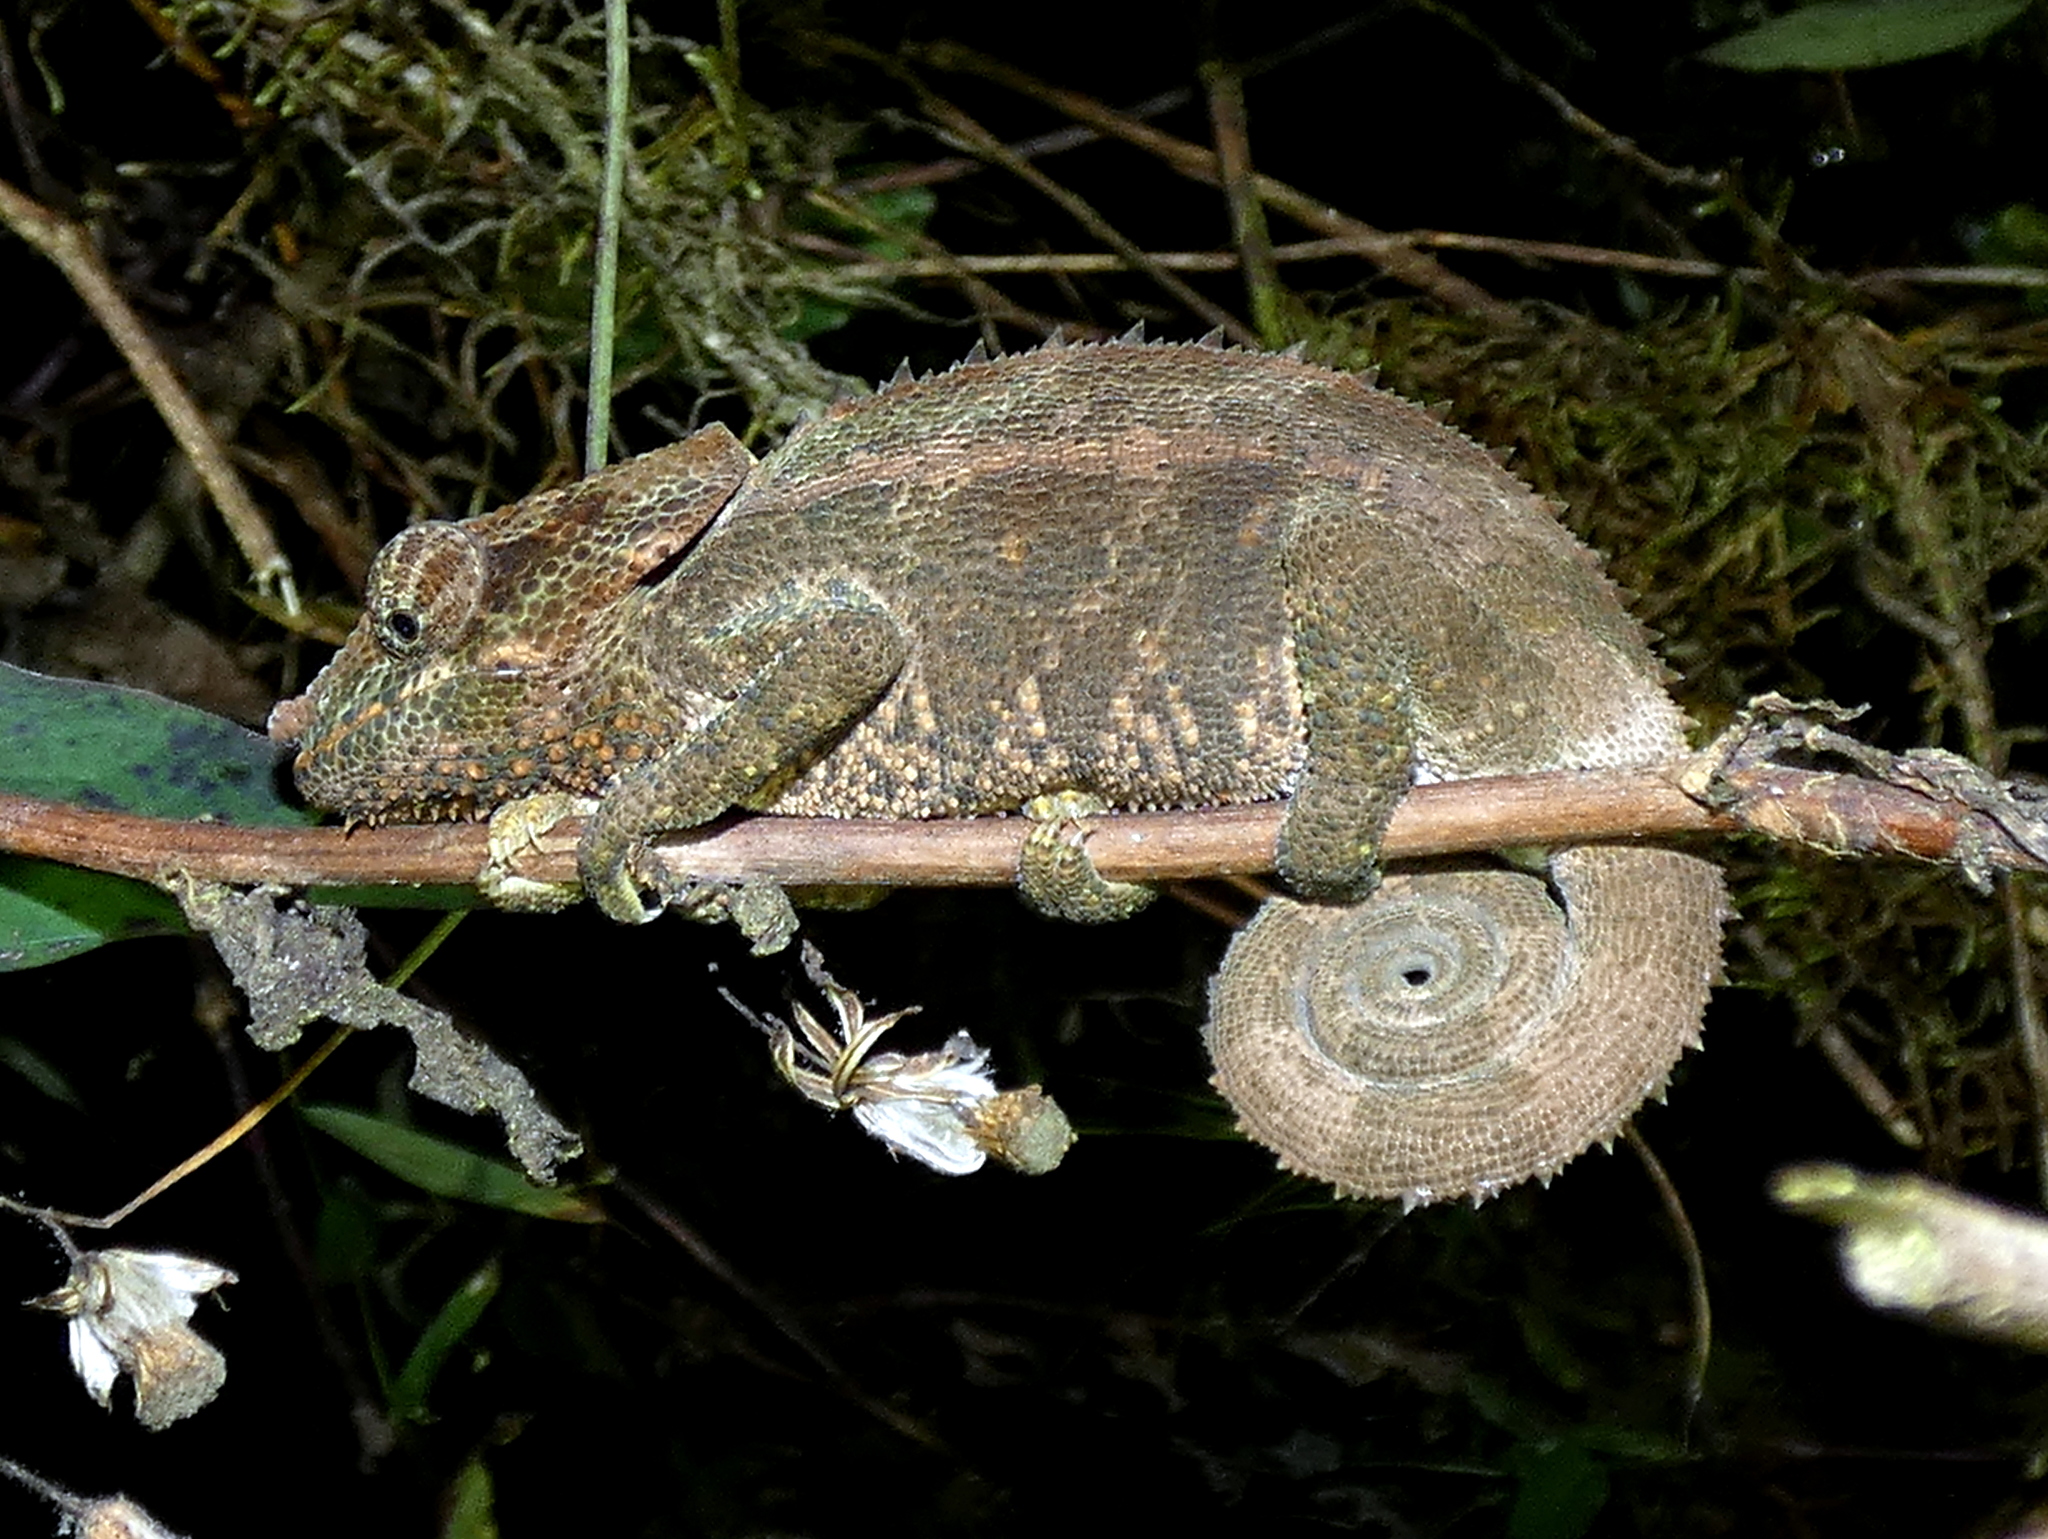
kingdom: Animalia
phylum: Chordata
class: Squamata
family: Chamaeleonidae
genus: Calumma
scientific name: Calumma crypticum
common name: Cryptic chameleon
